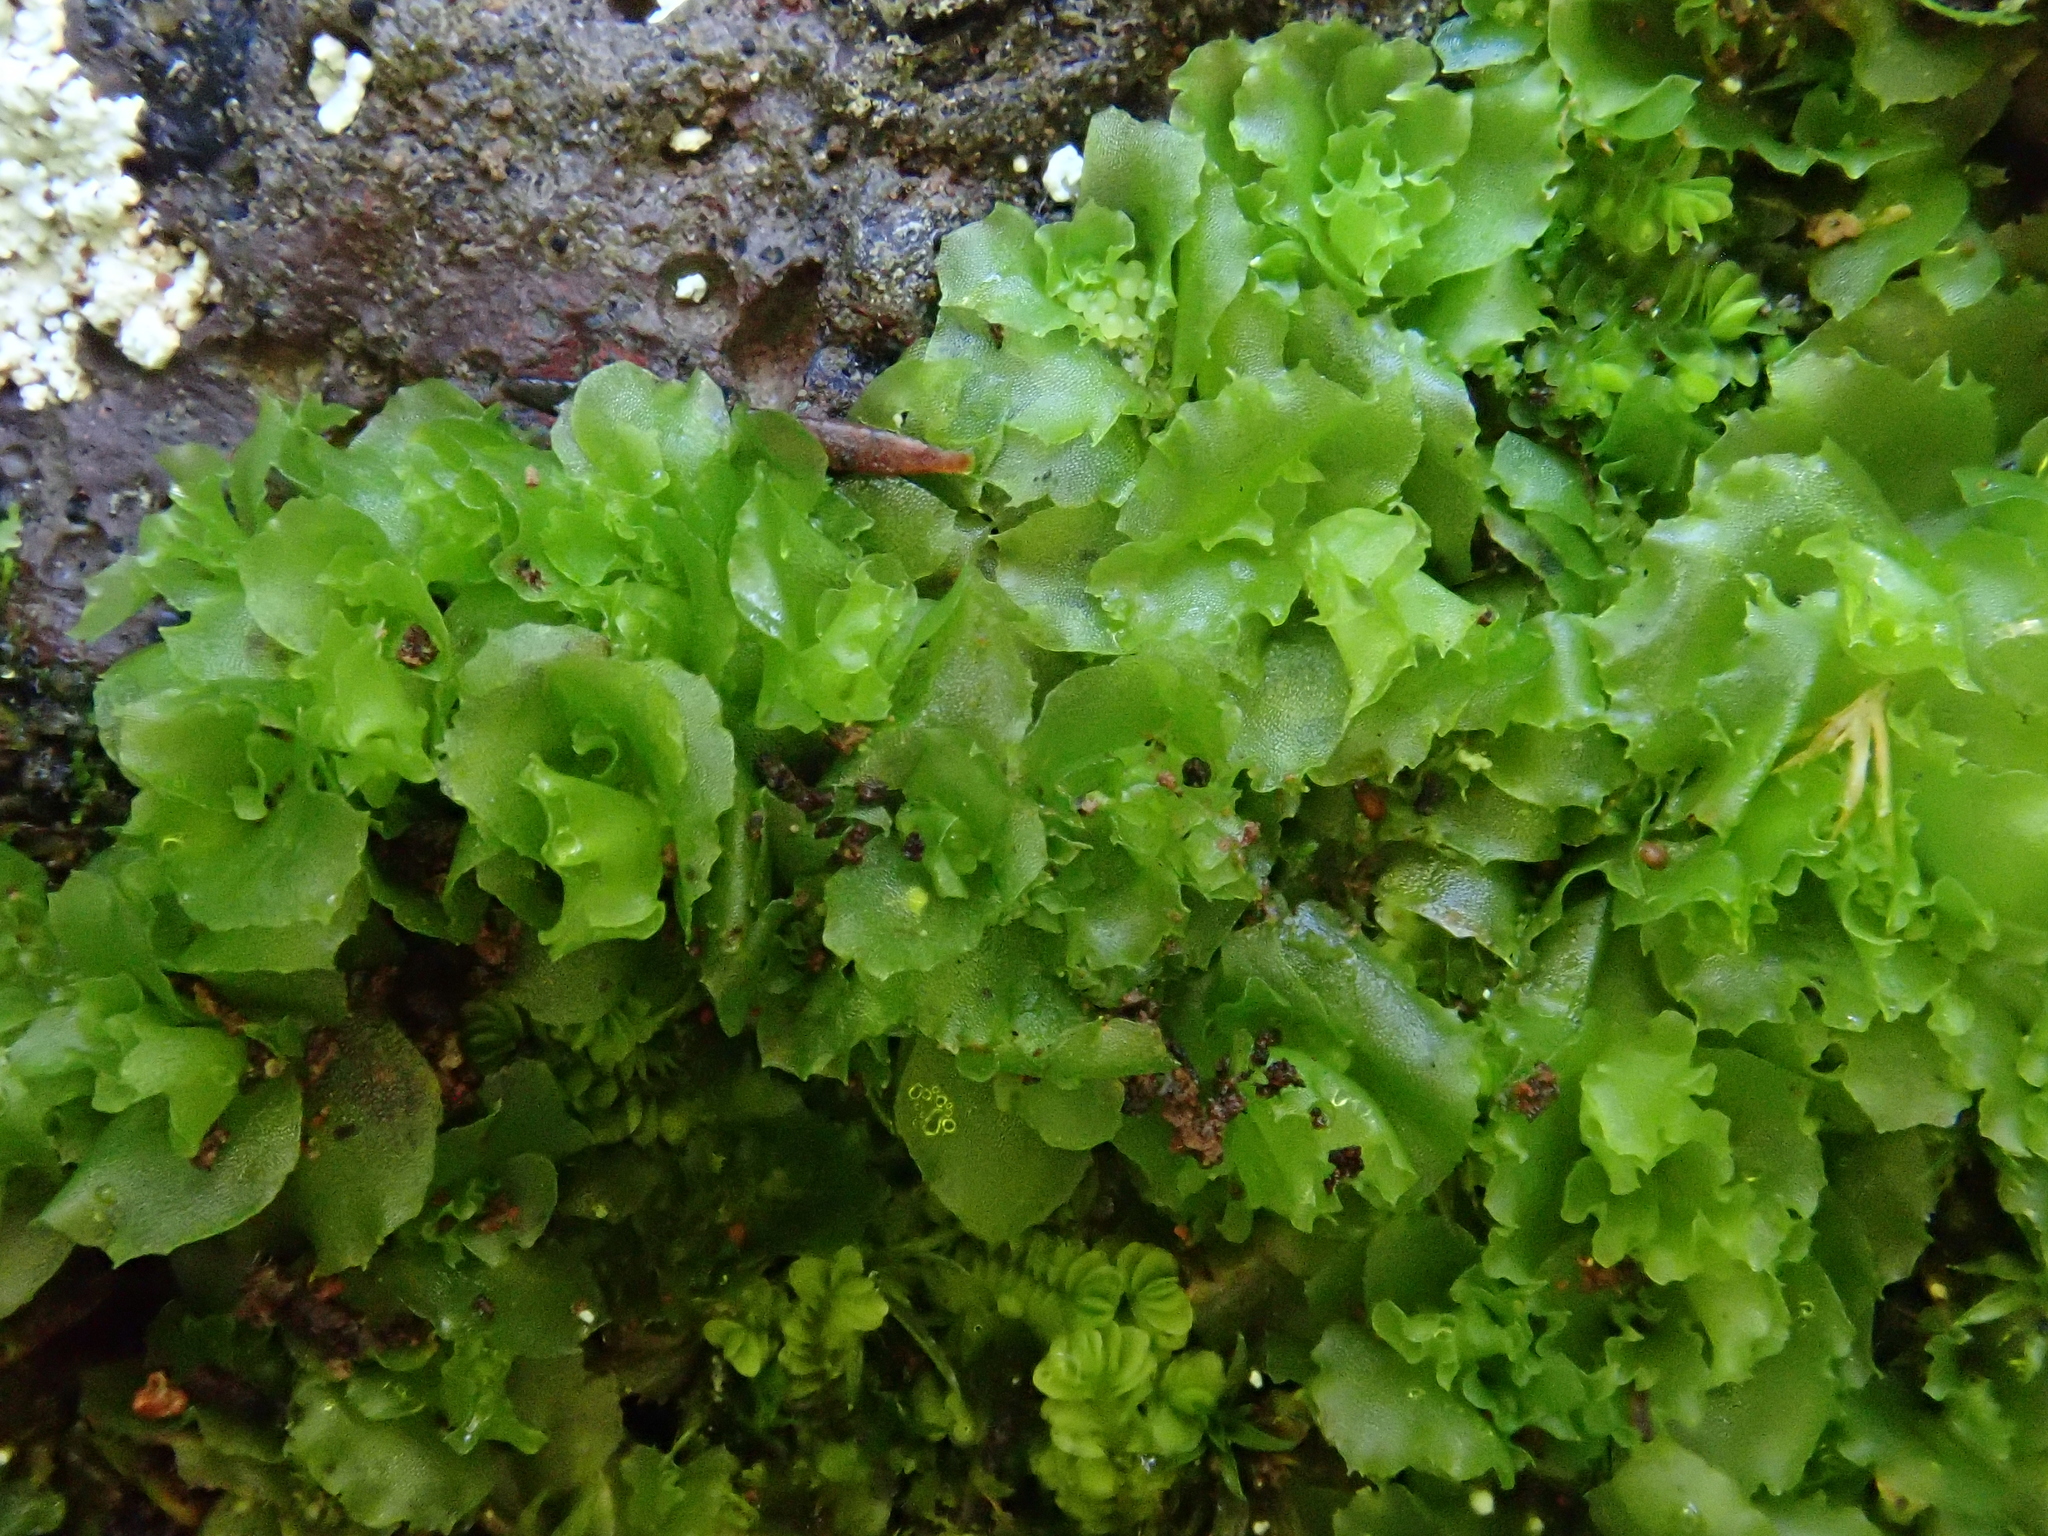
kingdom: Plantae
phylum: Marchantiophyta
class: Jungermanniopsida
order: Fossombroniales
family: Fossombroniaceae
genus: Fossombronia
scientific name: Fossombronia angulosa
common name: Greater frillwort
